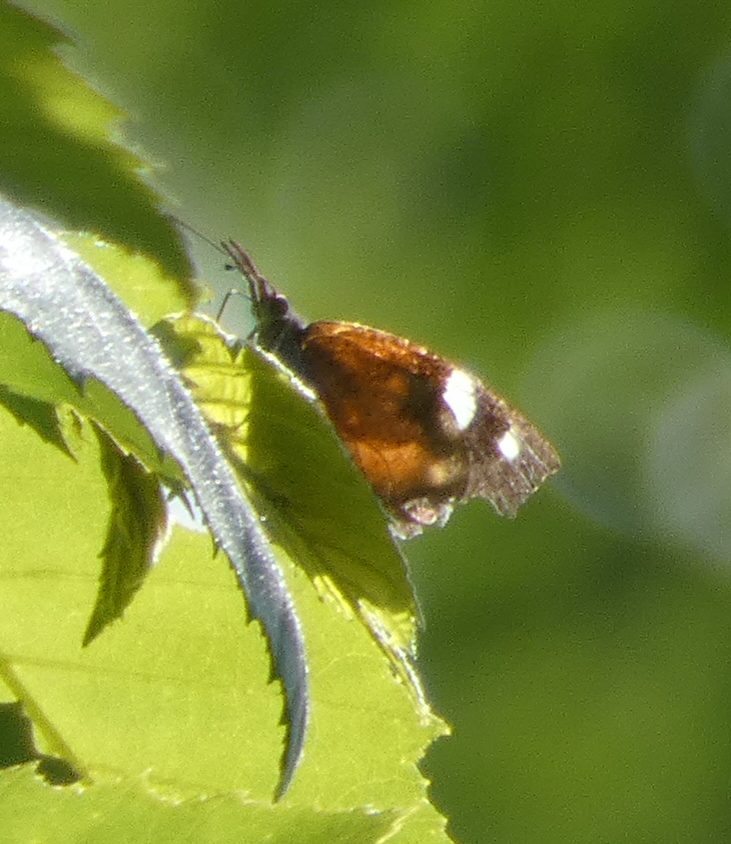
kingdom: Animalia
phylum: Arthropoda
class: Insecta
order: Lepidoptera
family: Nymphalidae
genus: Libytheana
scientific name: Libytheana carinenta
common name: American snout
